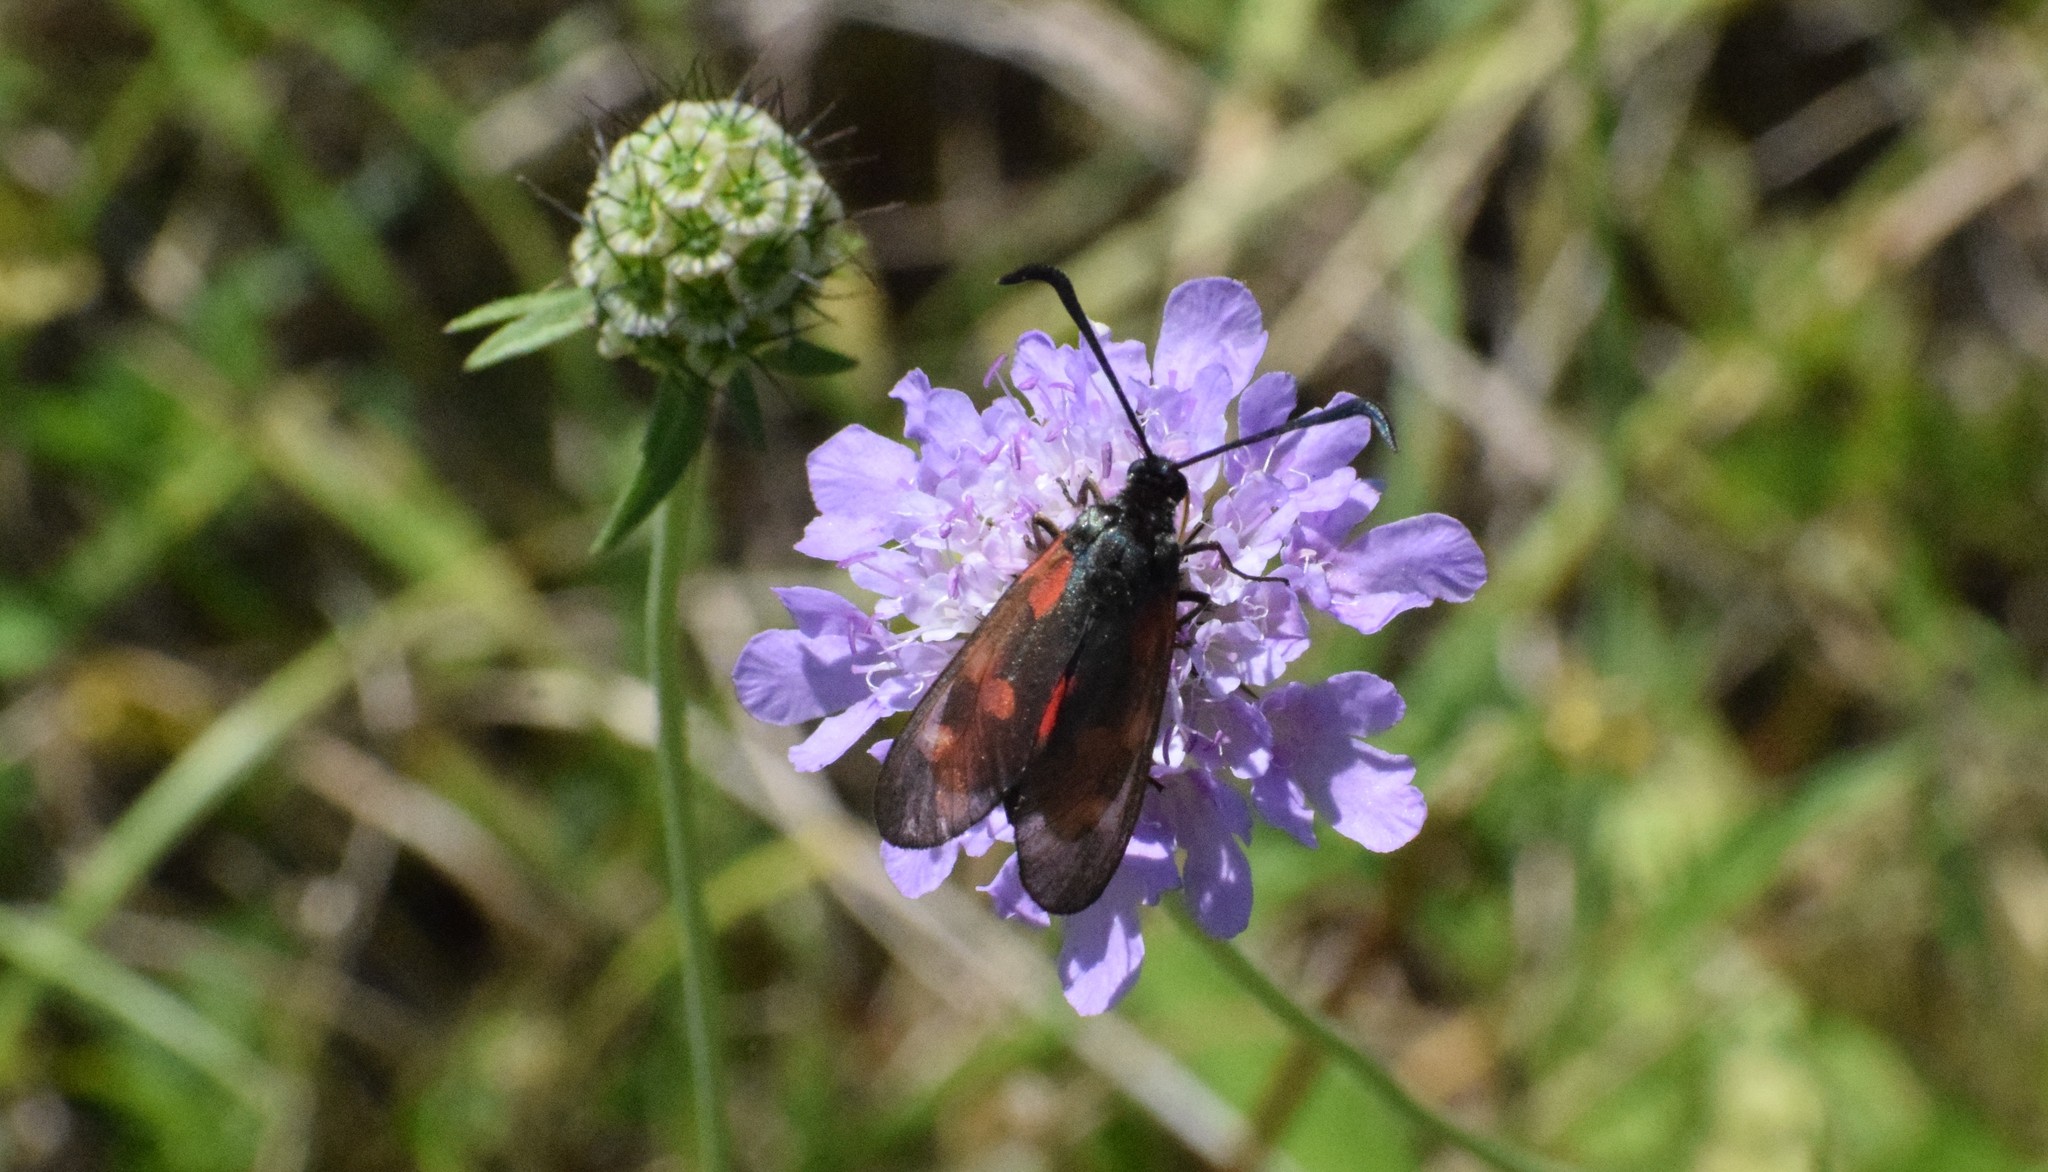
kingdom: Animalia
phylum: Arthropoda
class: Insecta
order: Lepidoptera
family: Zygaenidae
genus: Zygaena
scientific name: Zygaena filipendulae
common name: Six-spot burnet
